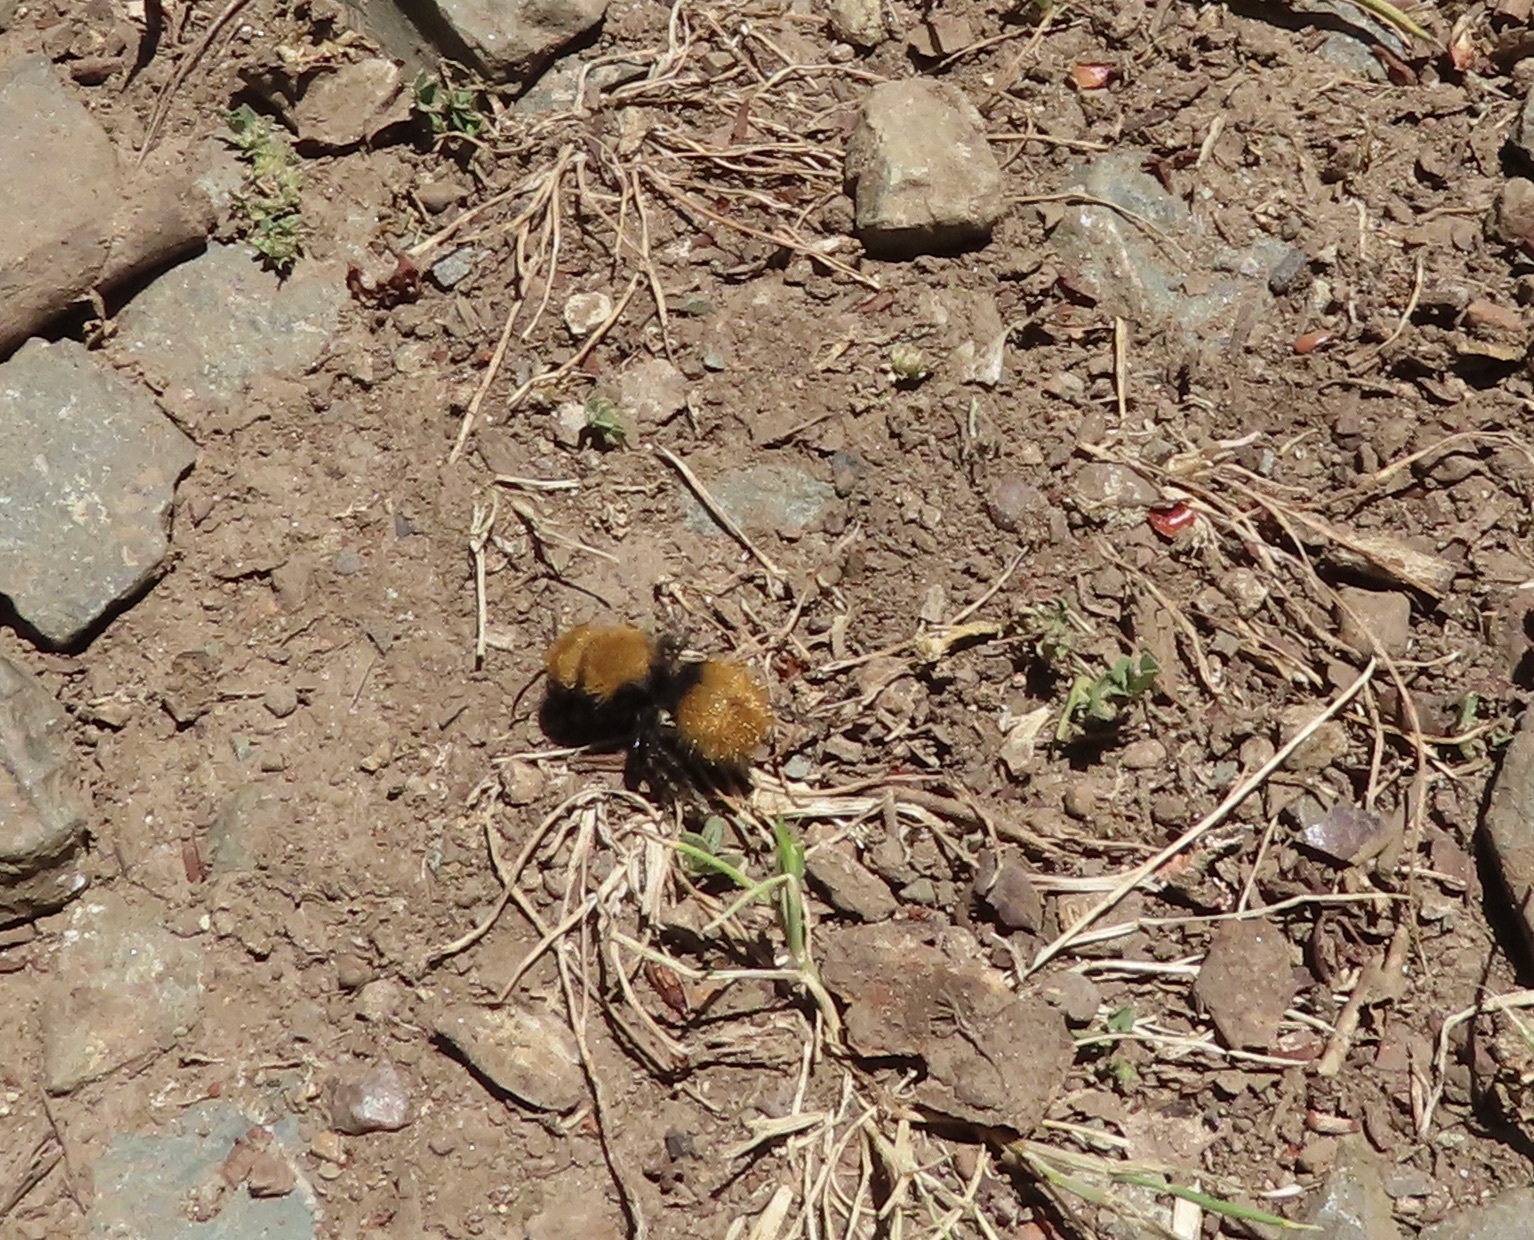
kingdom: Animalia
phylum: Arthropoda
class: Insecta
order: Hymenoptera
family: Mutillidae
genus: Dasymutilla
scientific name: Dasymutilla
